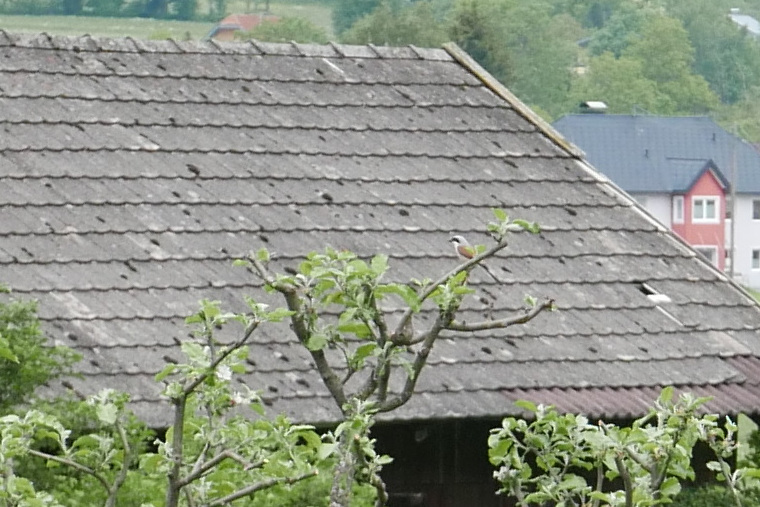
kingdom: Animalia
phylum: Chordata
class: Aves
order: Passeriformes
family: Laniidae
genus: Lanius
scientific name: Lanius collurio
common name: Red-backed shrike
